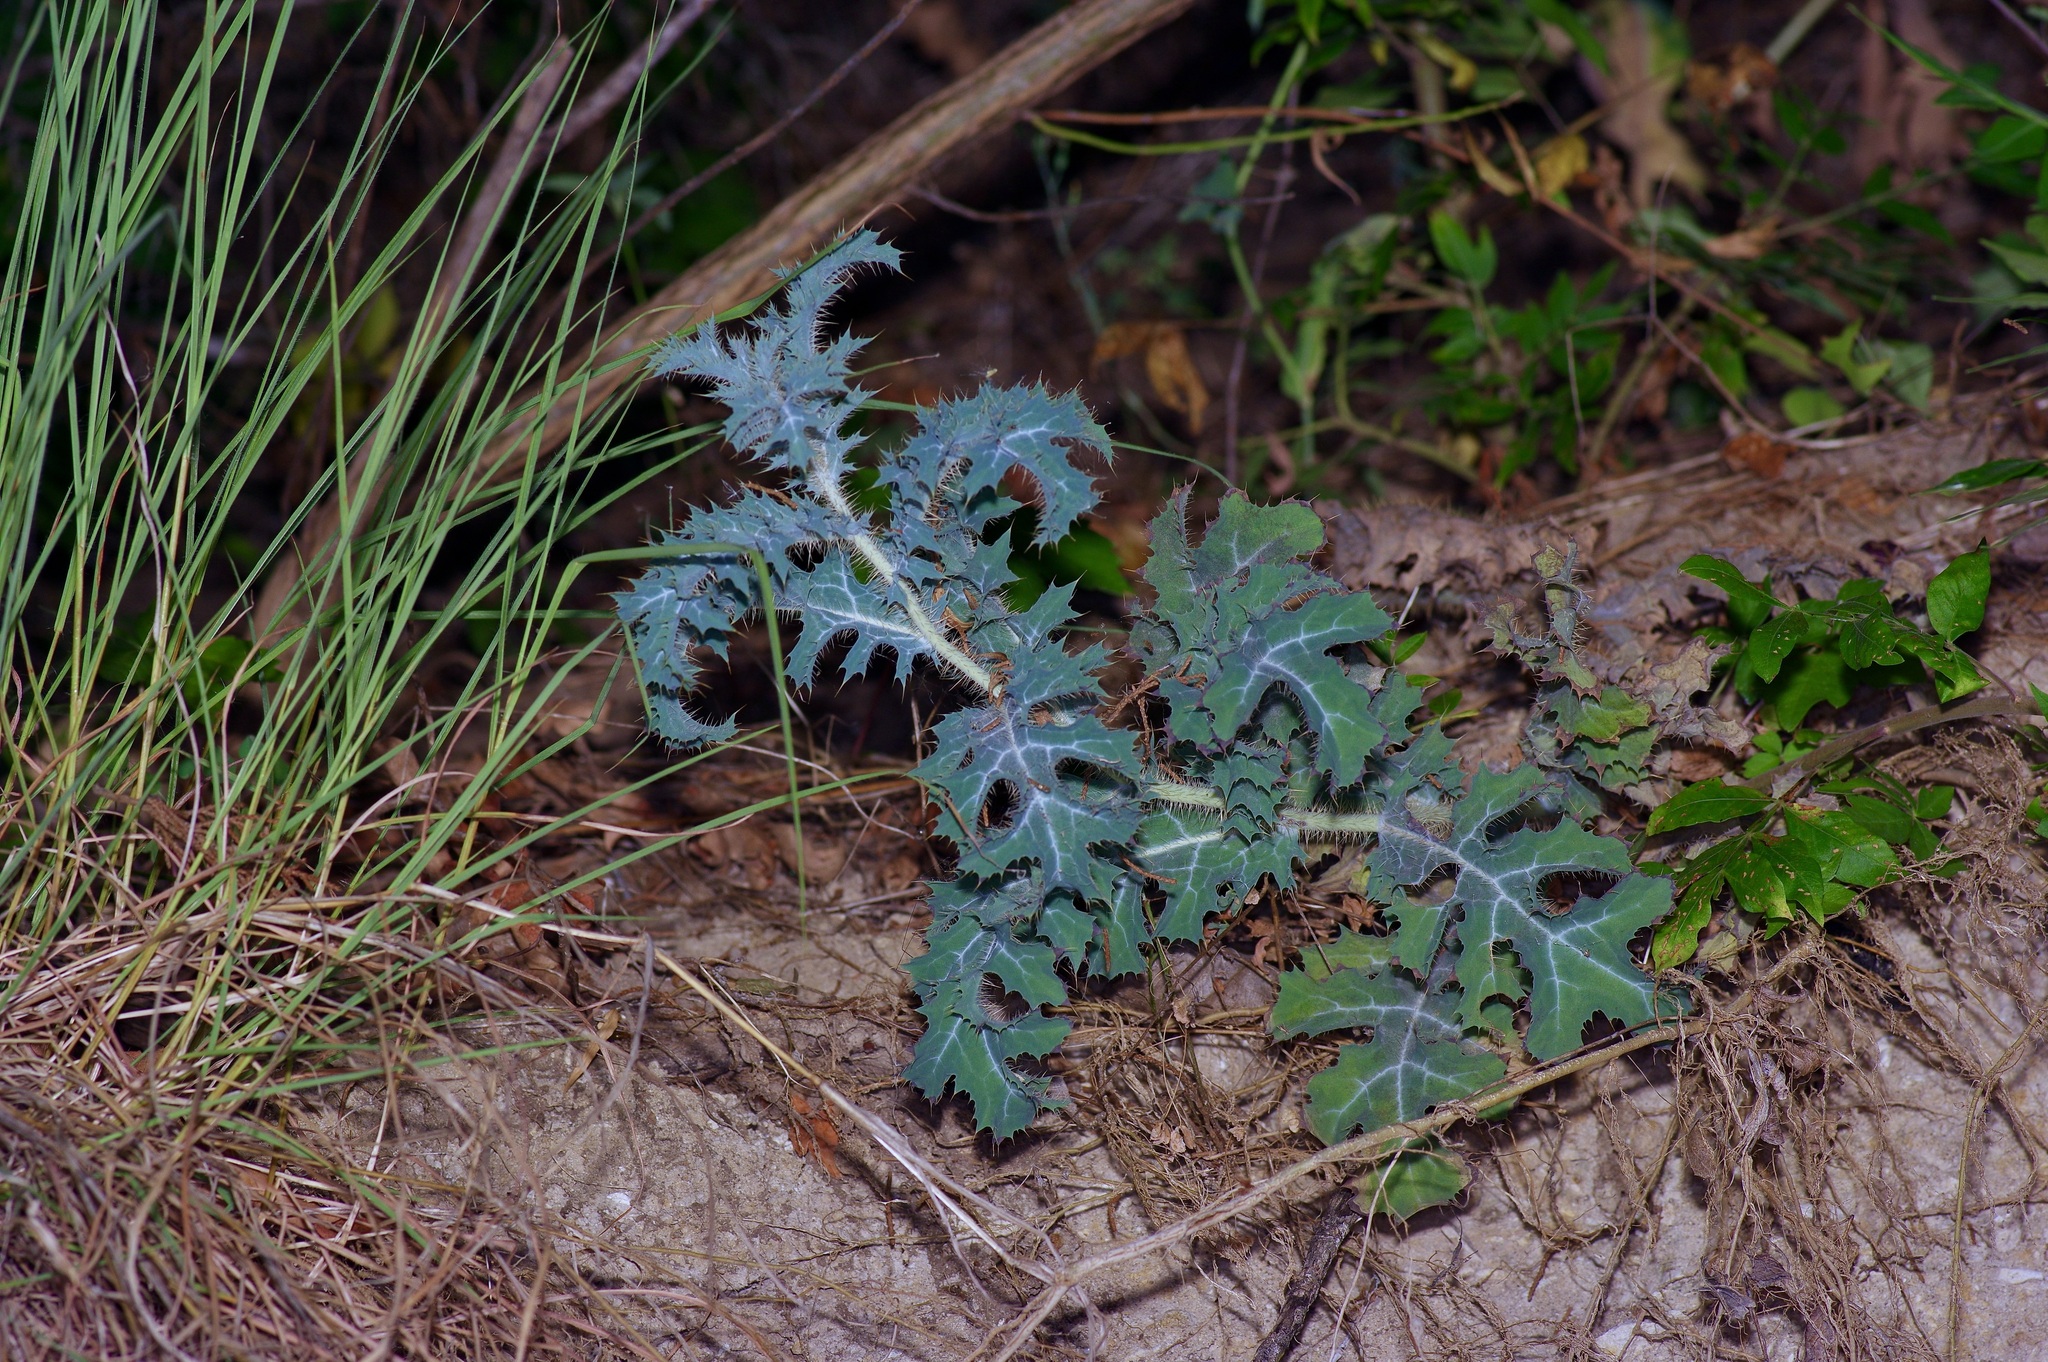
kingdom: Plantae
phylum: Tracheophyta
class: Magnoliopsida
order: Ranunculales
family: Papaveraceae
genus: Argemone
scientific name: Argemone albiflora
